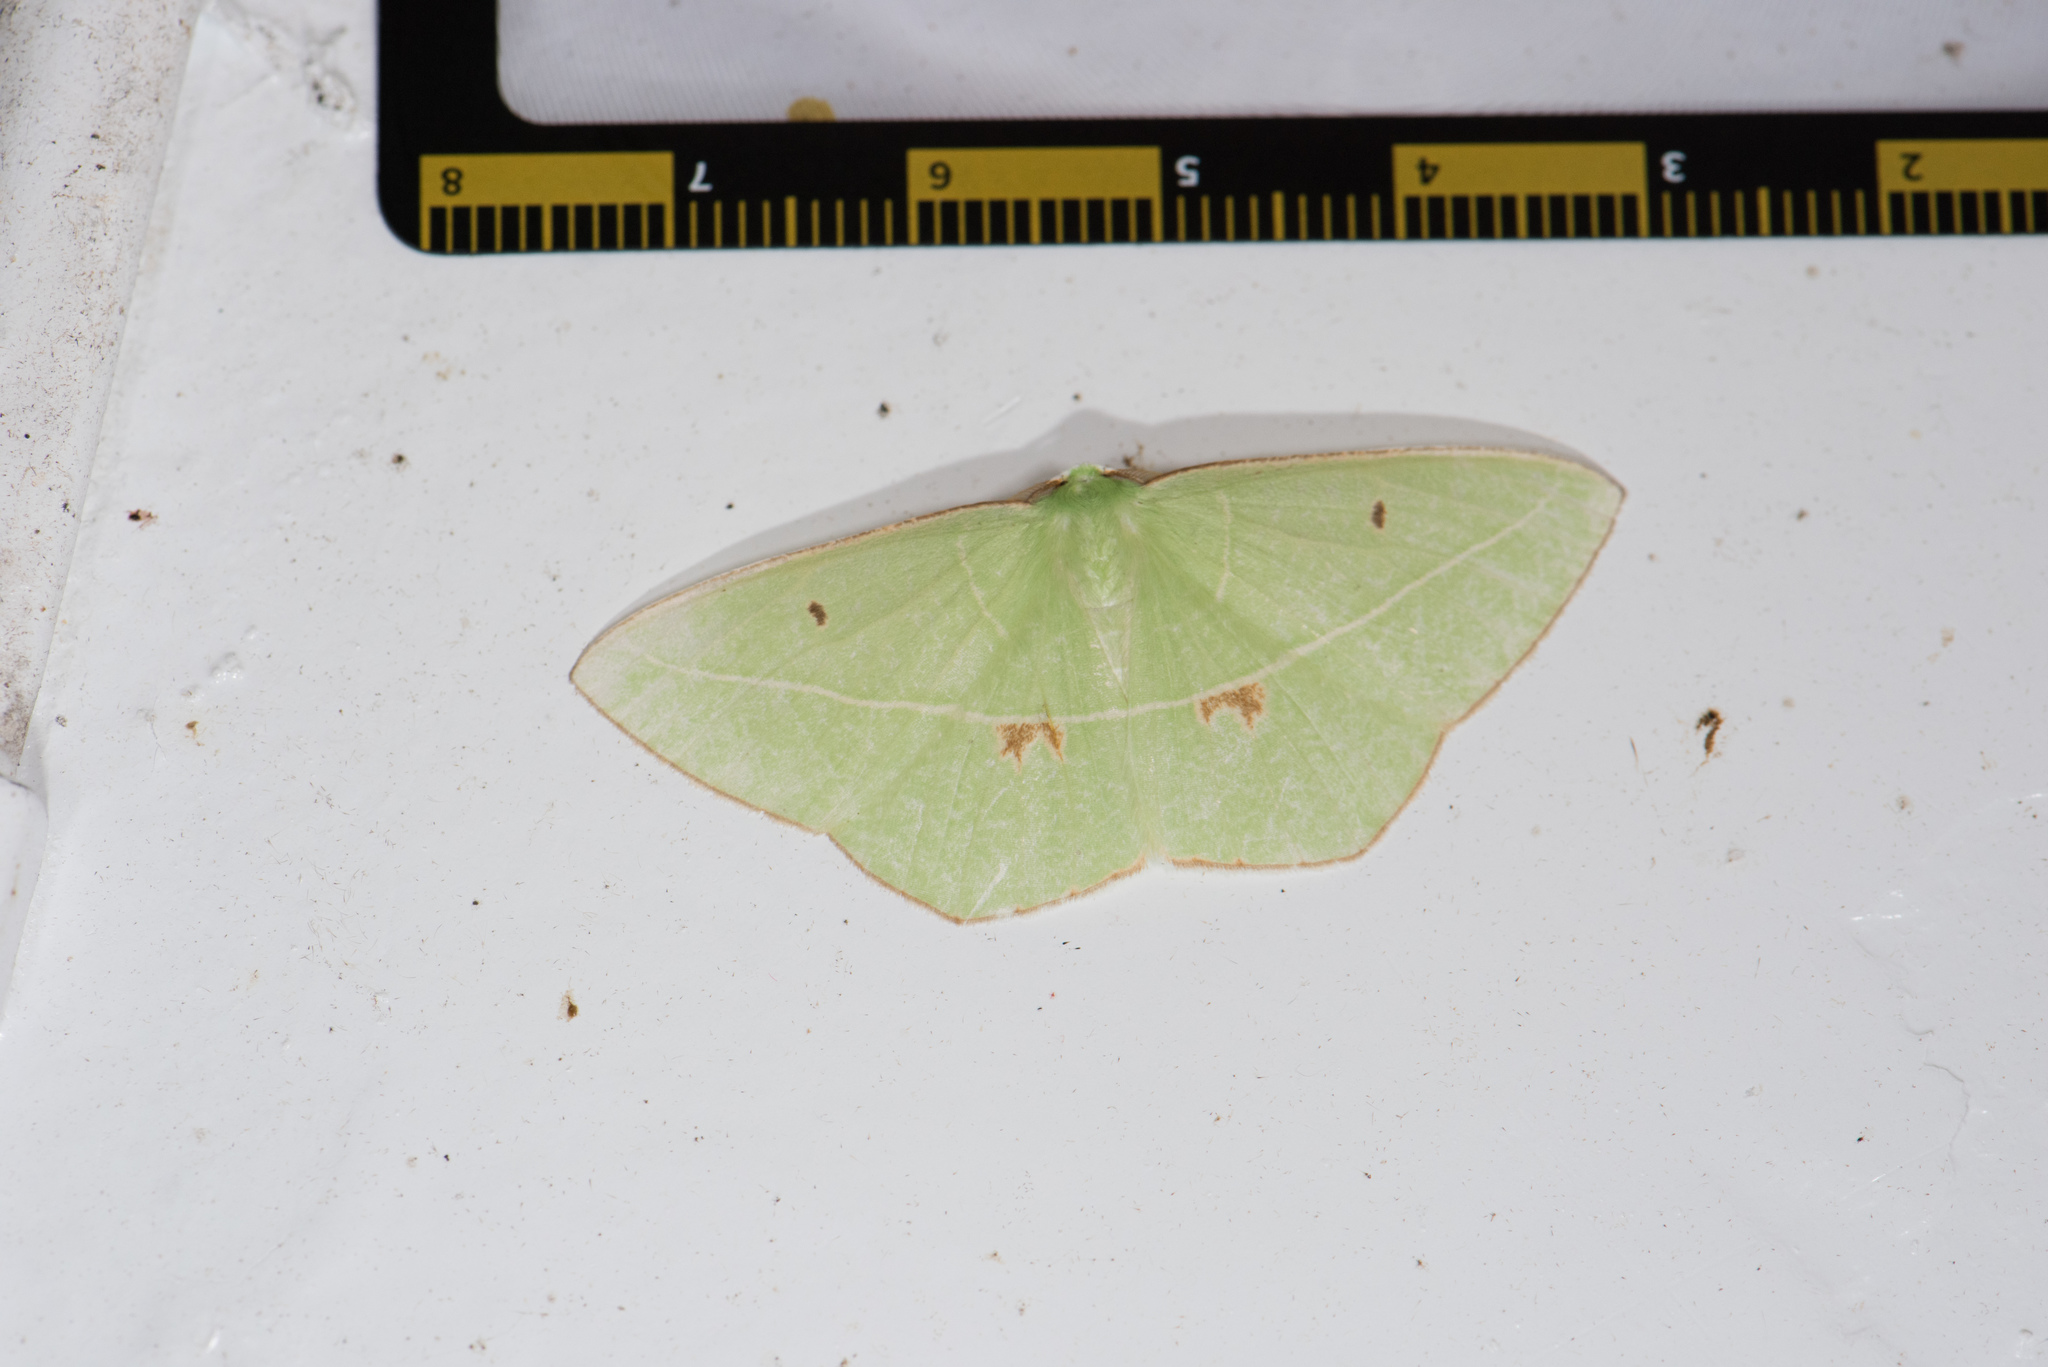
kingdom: Animalia
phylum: Arthropoda
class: Insecta
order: Lepidoptera
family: Geometridae
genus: Tanaoctenia
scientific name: Tanaoctenia haliaria
